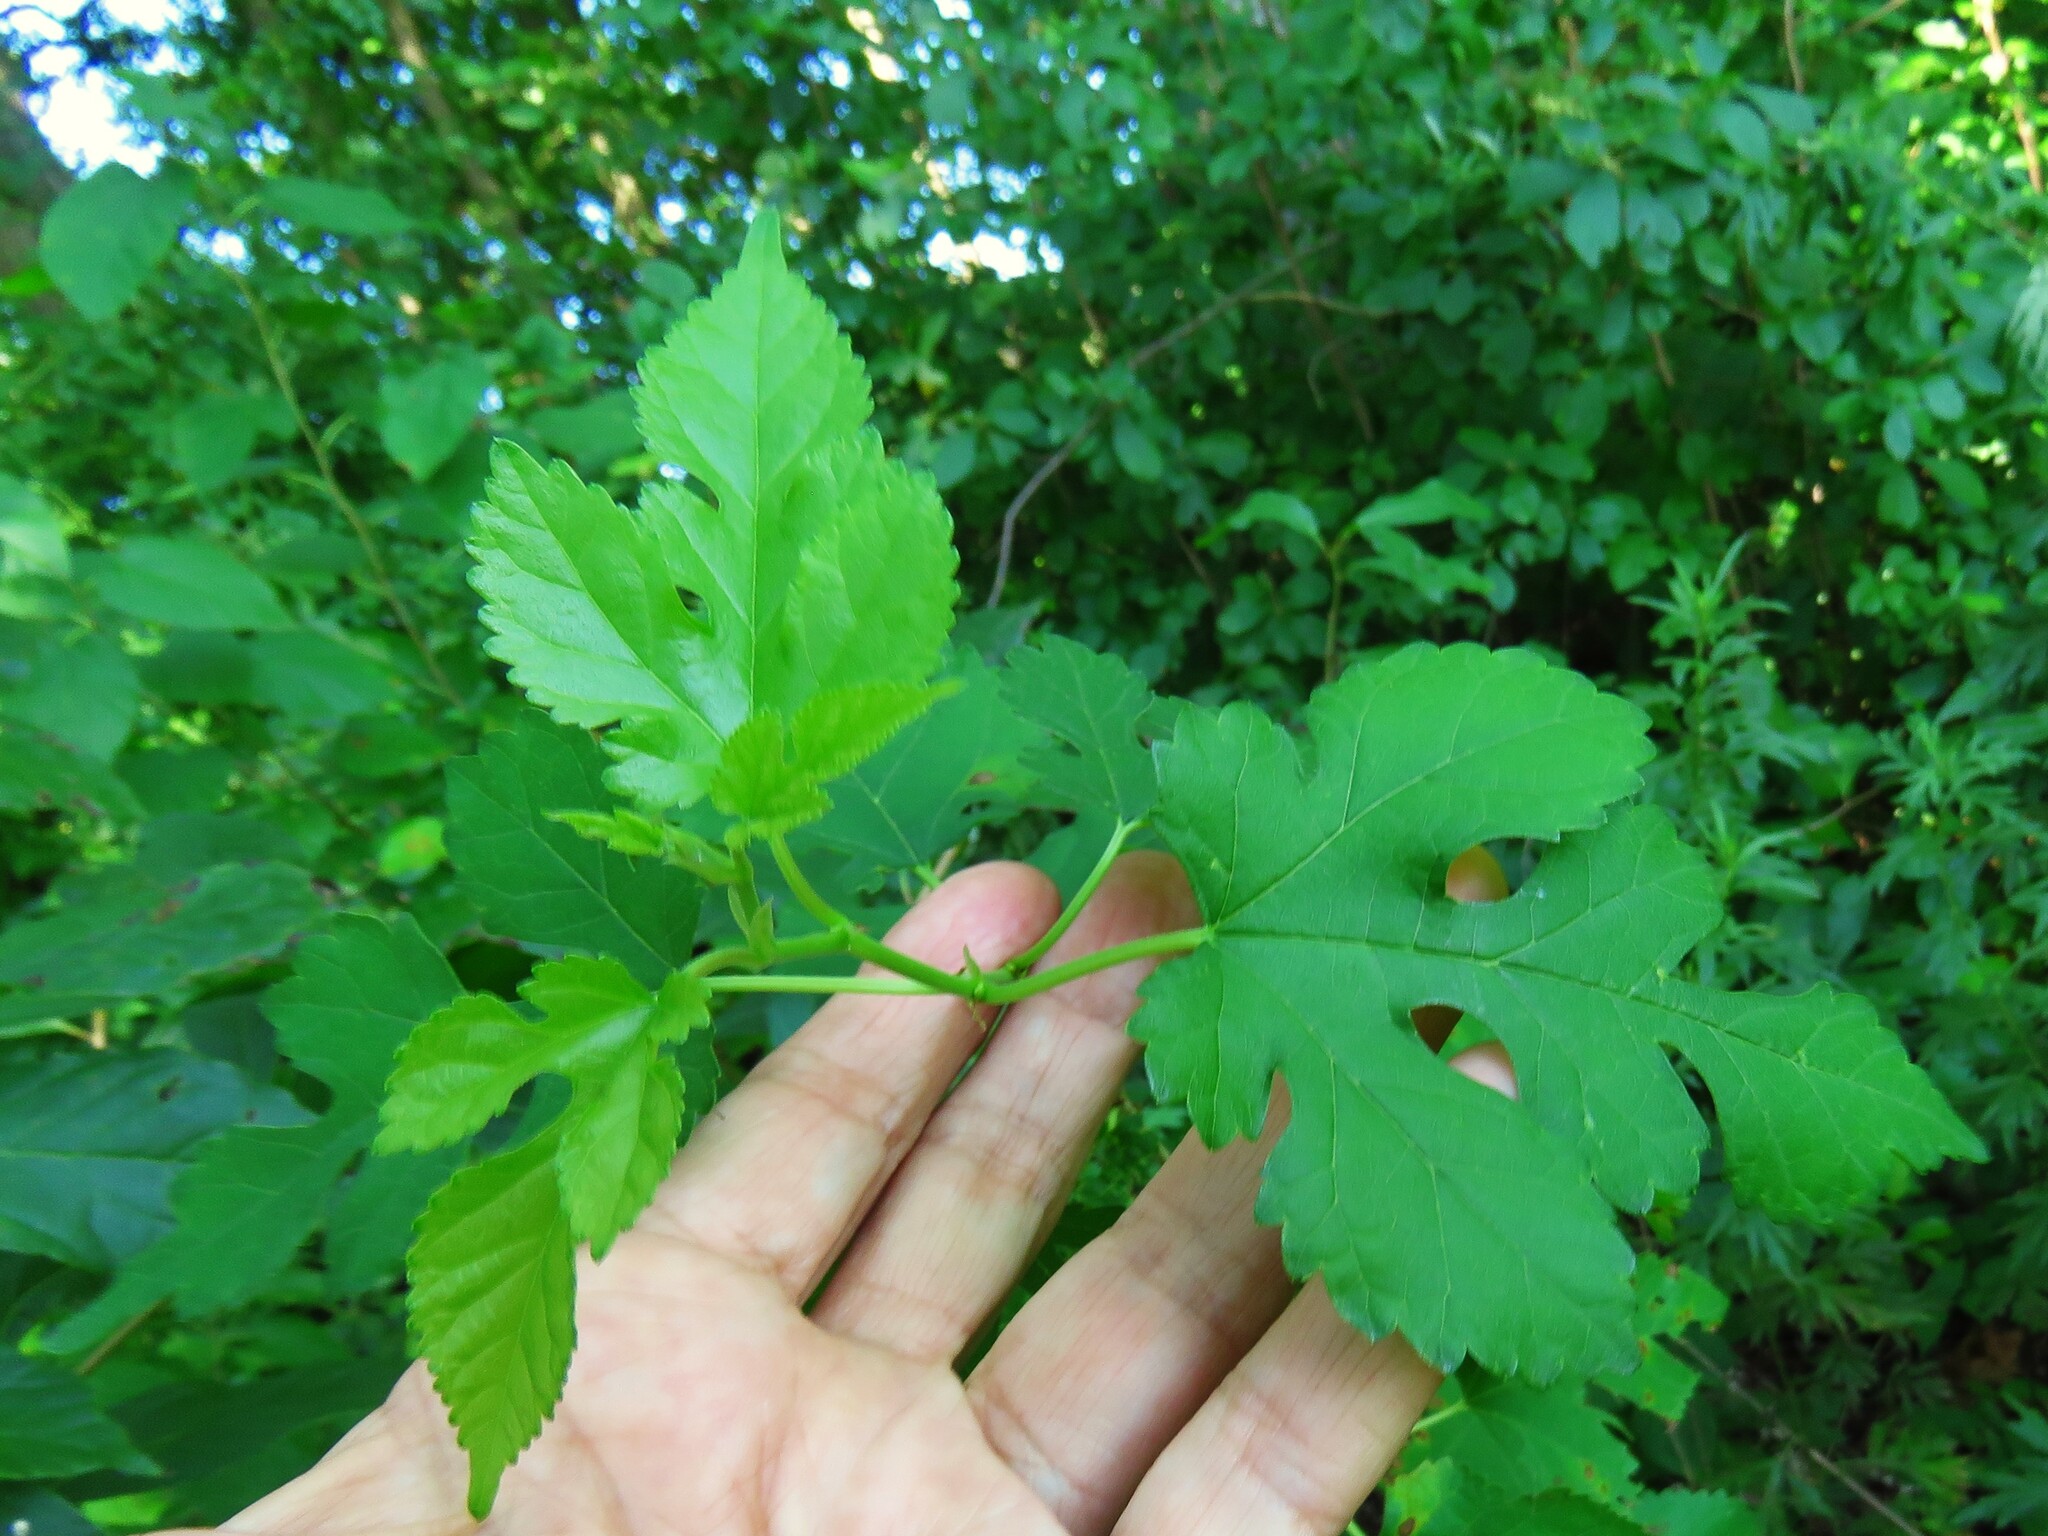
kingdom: Plantae
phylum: Tracheophyta
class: Magnoliopsida
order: Rosales
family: Moraceae
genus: Morus
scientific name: Morus alba
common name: White mulberry
